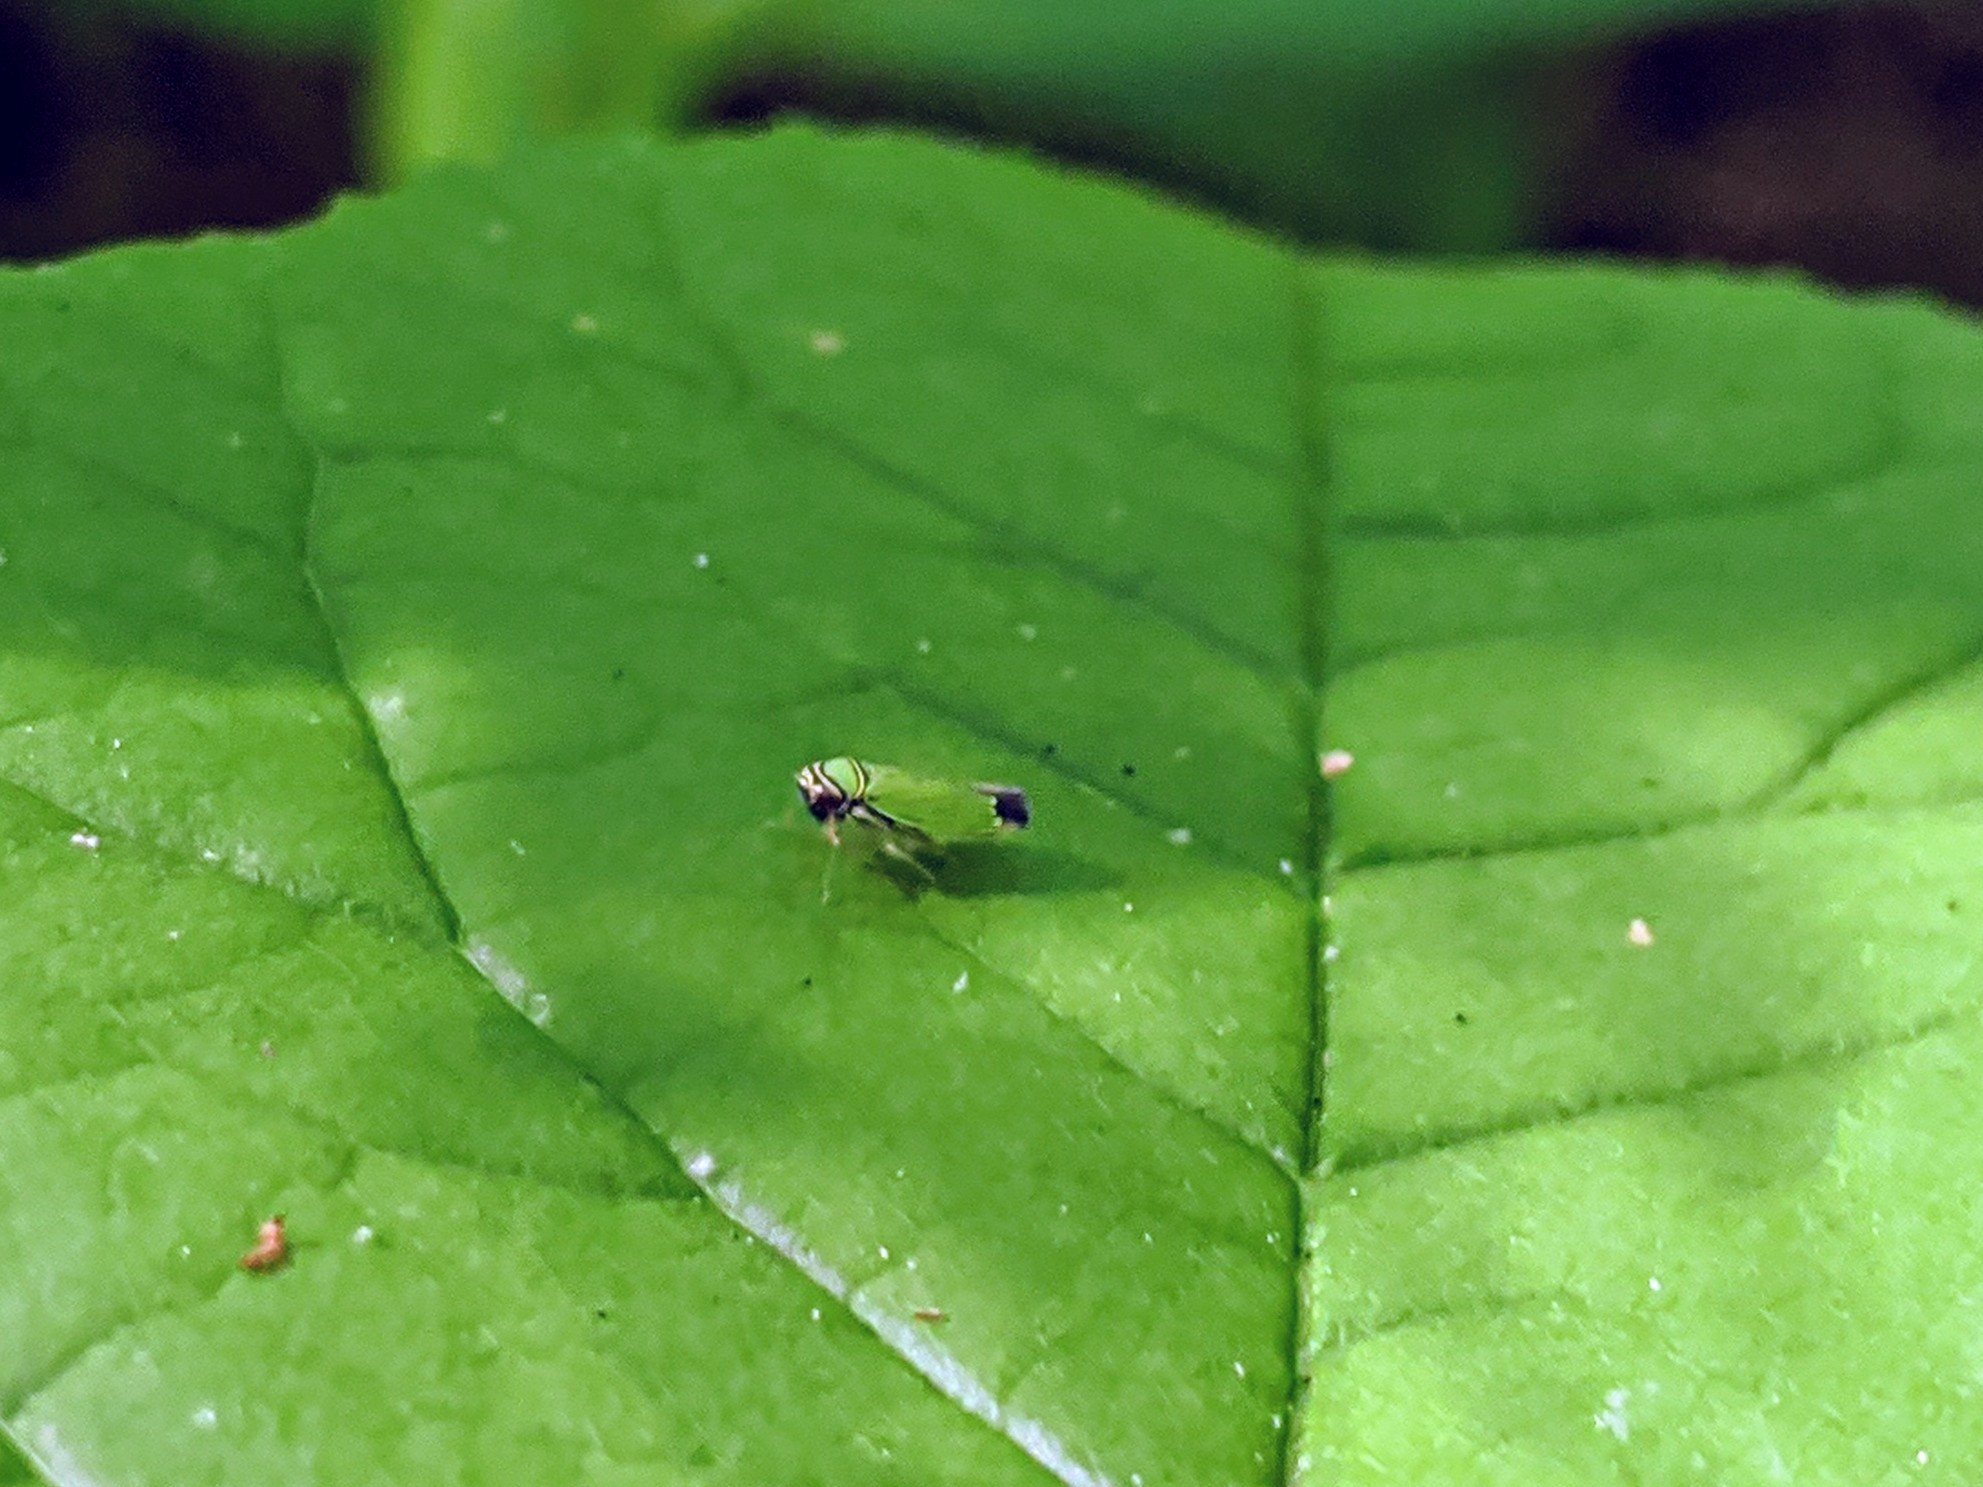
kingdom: Animalia
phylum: Arthropoda
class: Insecta
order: Hemiptera
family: Cicadellidae
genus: Tylozygus
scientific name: Tylozygus geometricus
